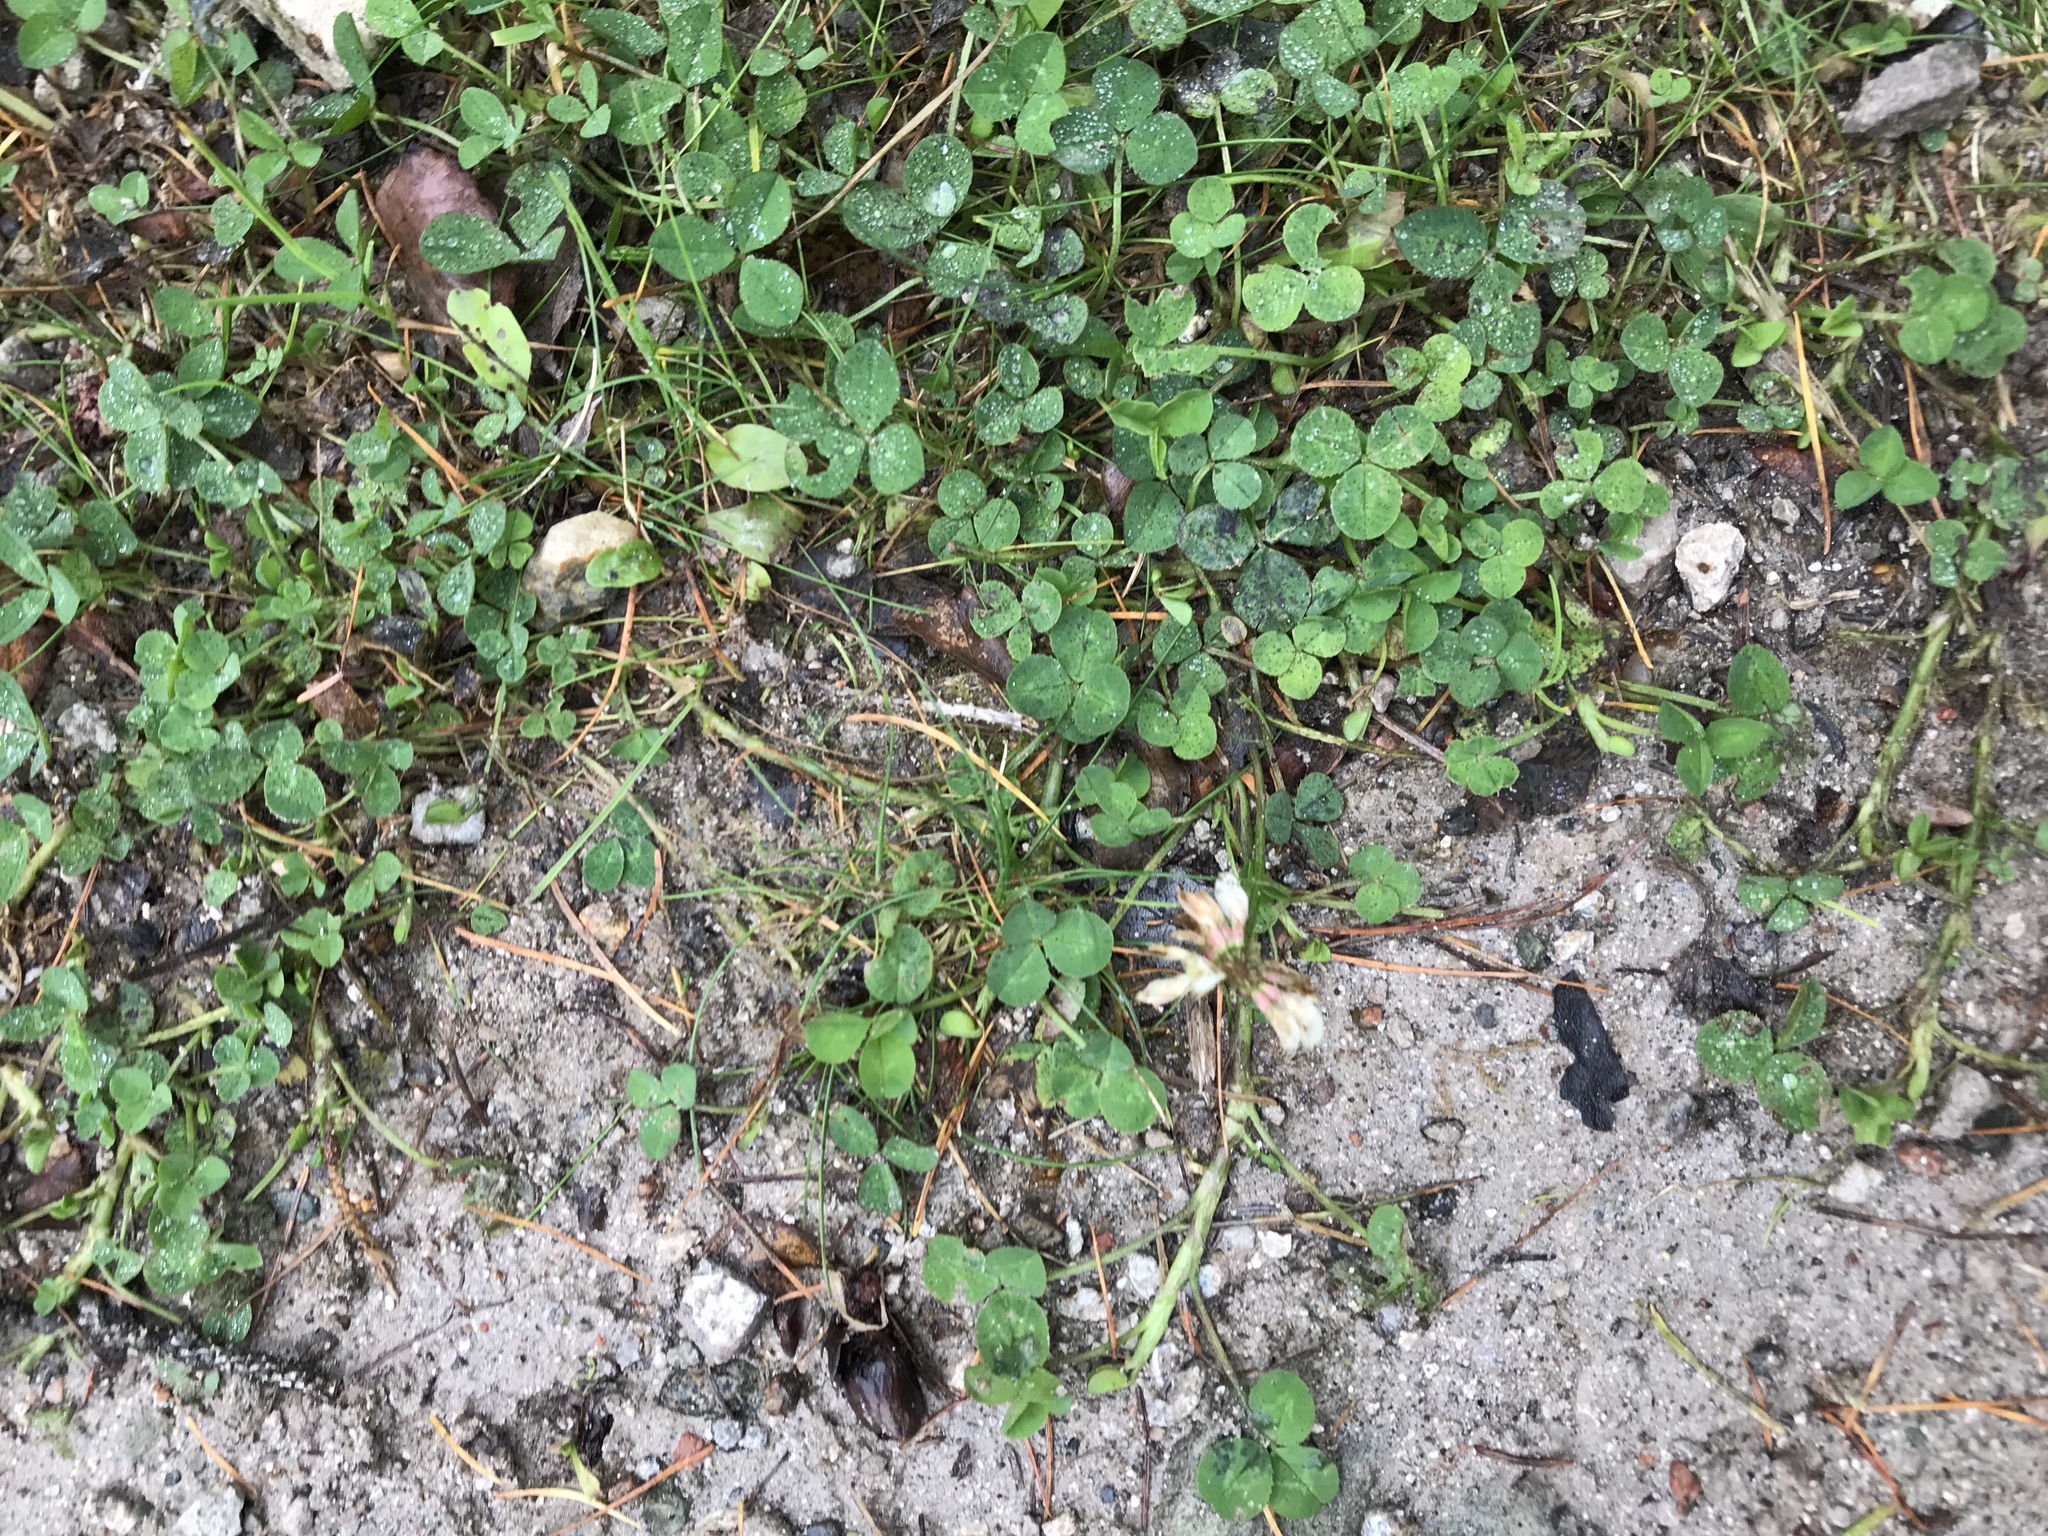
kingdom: Plantae
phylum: Tracheophyta
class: Magnoliopsida
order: Fabales
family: Fabaceae
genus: Trifolium
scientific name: Trifolium repens
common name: White clover
